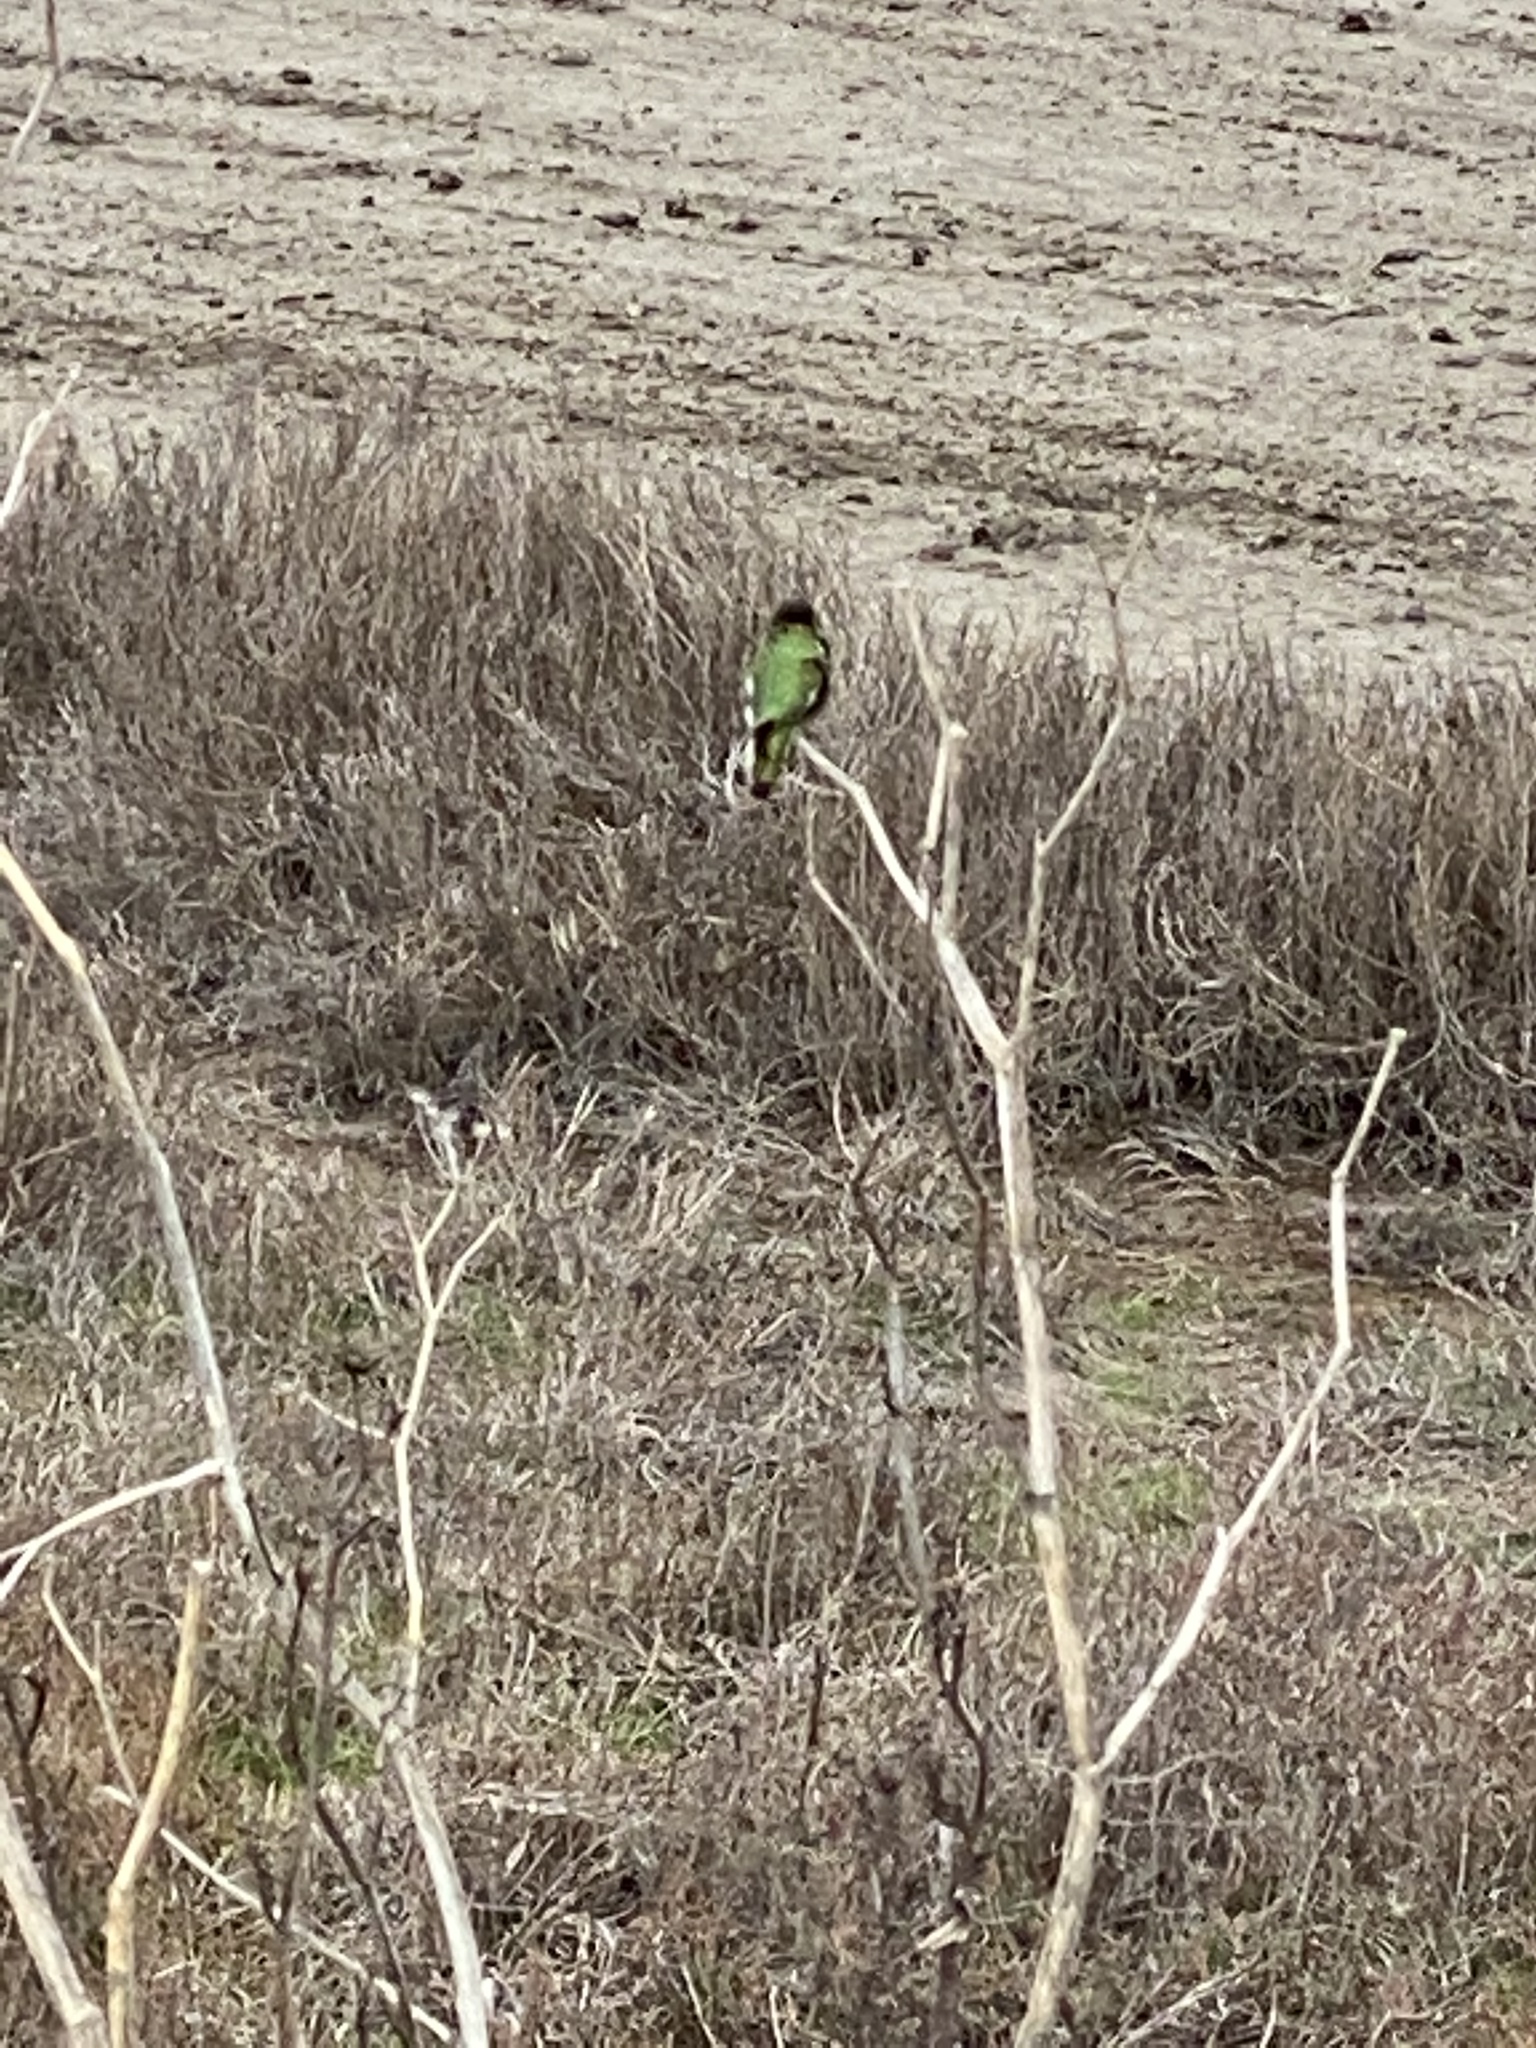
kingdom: Animalia
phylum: Chordata
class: Aves
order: Apodiformes
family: Trochilidae
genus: Calypte
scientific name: Calypte anna
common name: Anna's hummingbird
